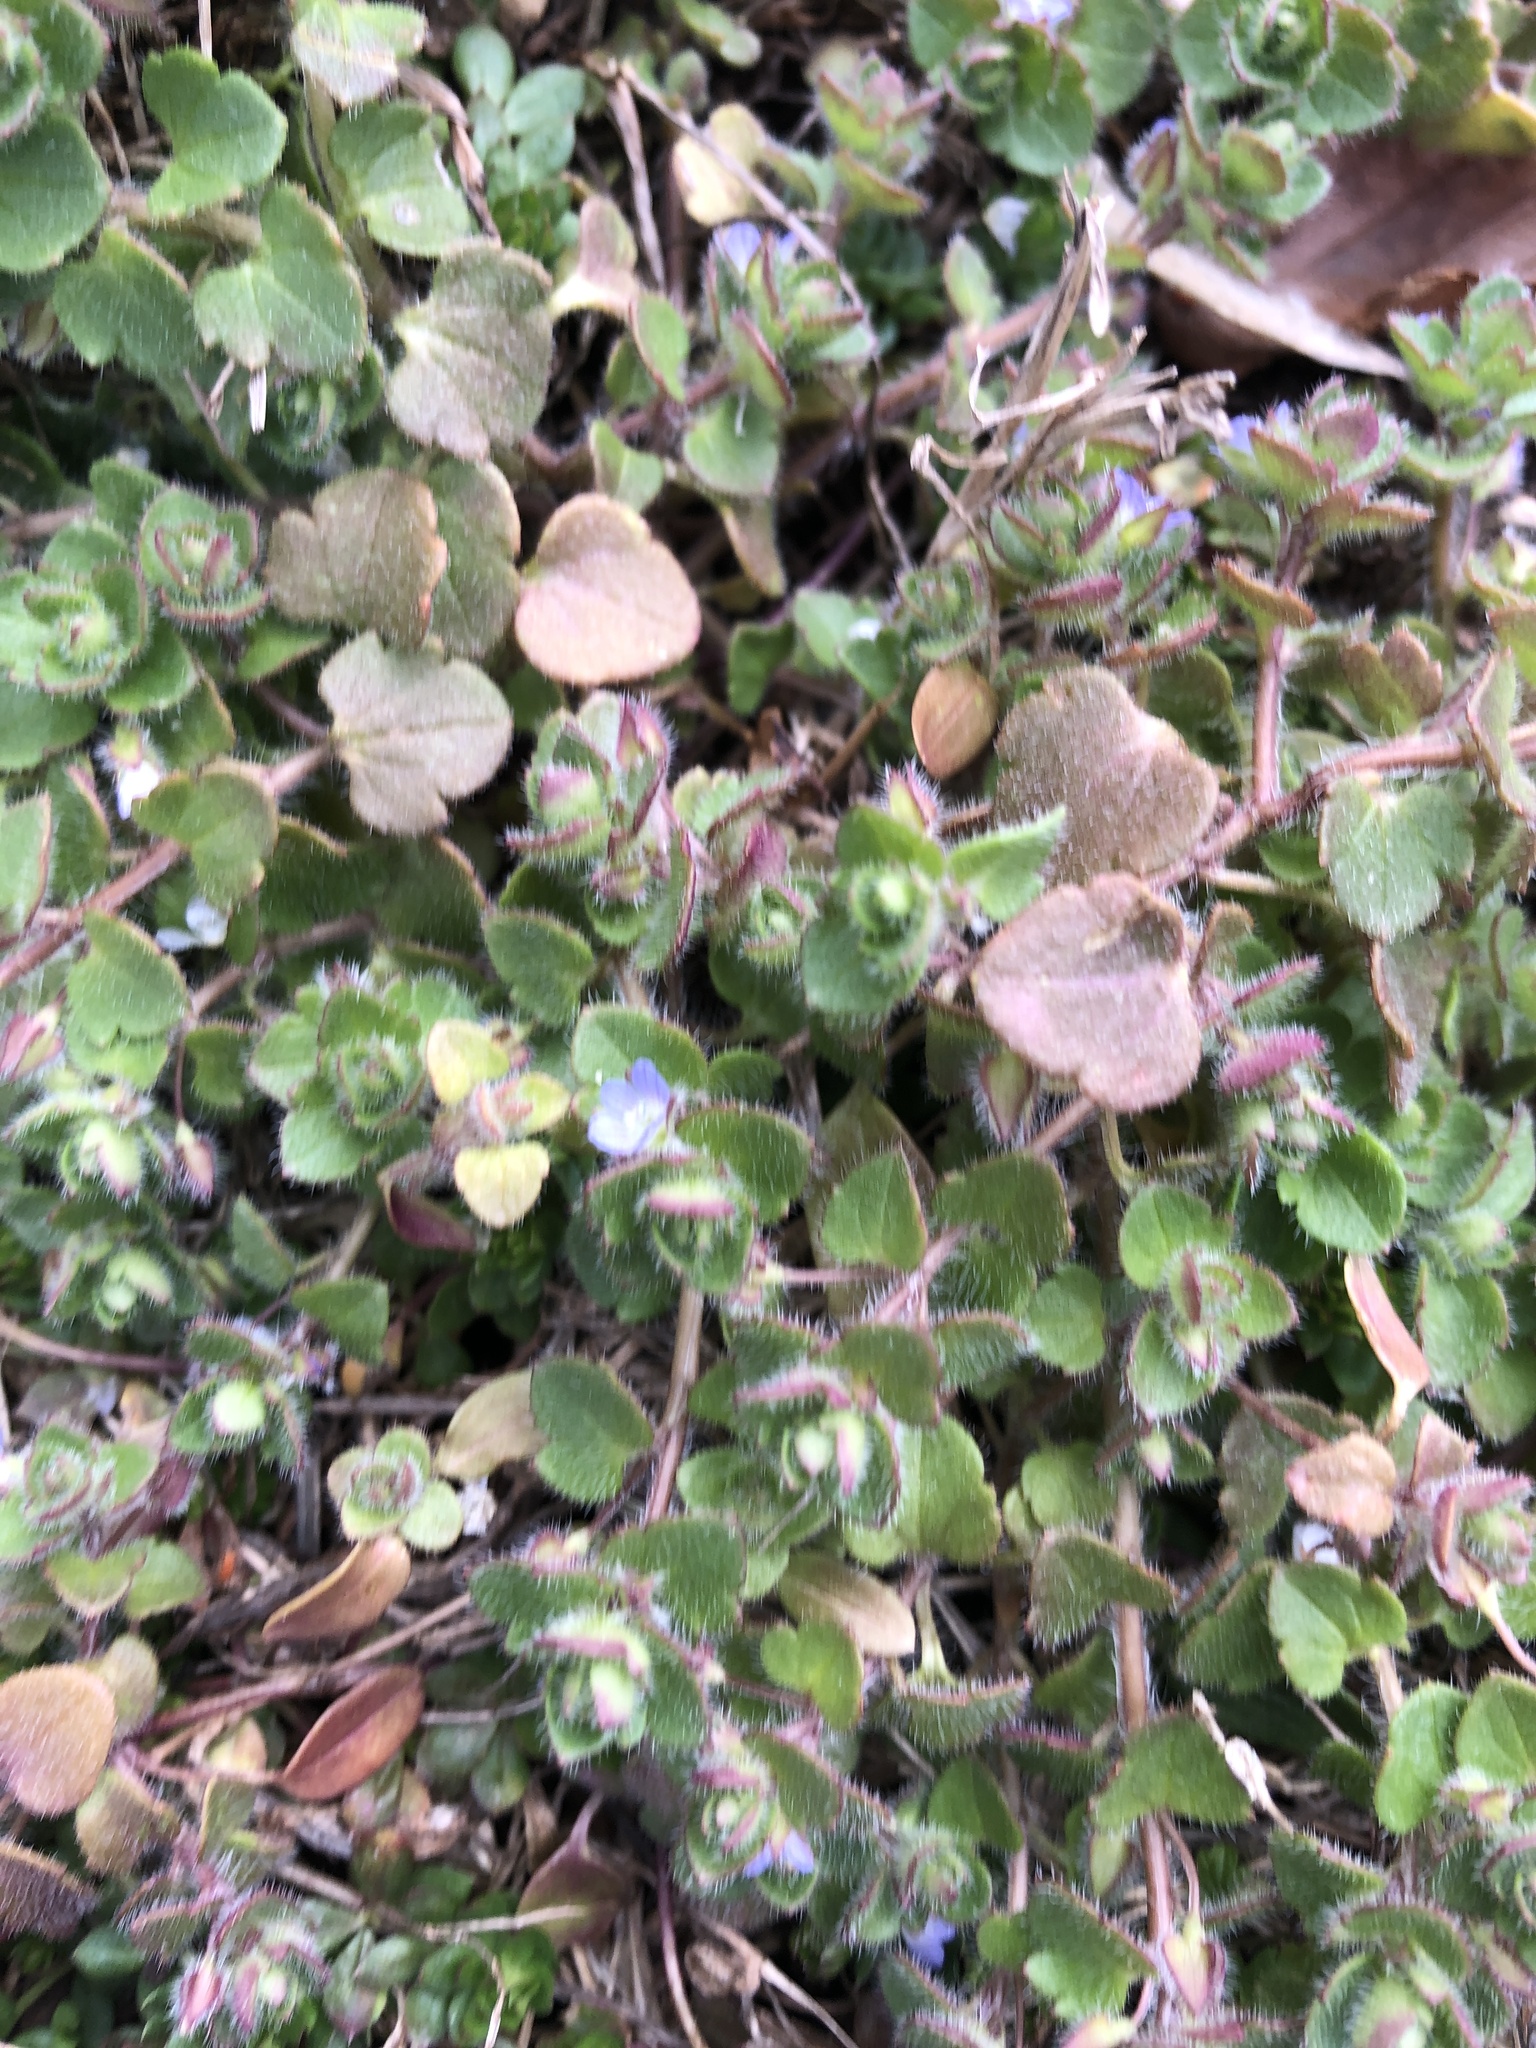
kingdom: Plantae
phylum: Tracheophyta
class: Magnoliopsida
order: Lamiales
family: Plantaginaceae
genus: Veronica
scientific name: Veronica hederifolia
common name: Ivy-leaved speedwell
